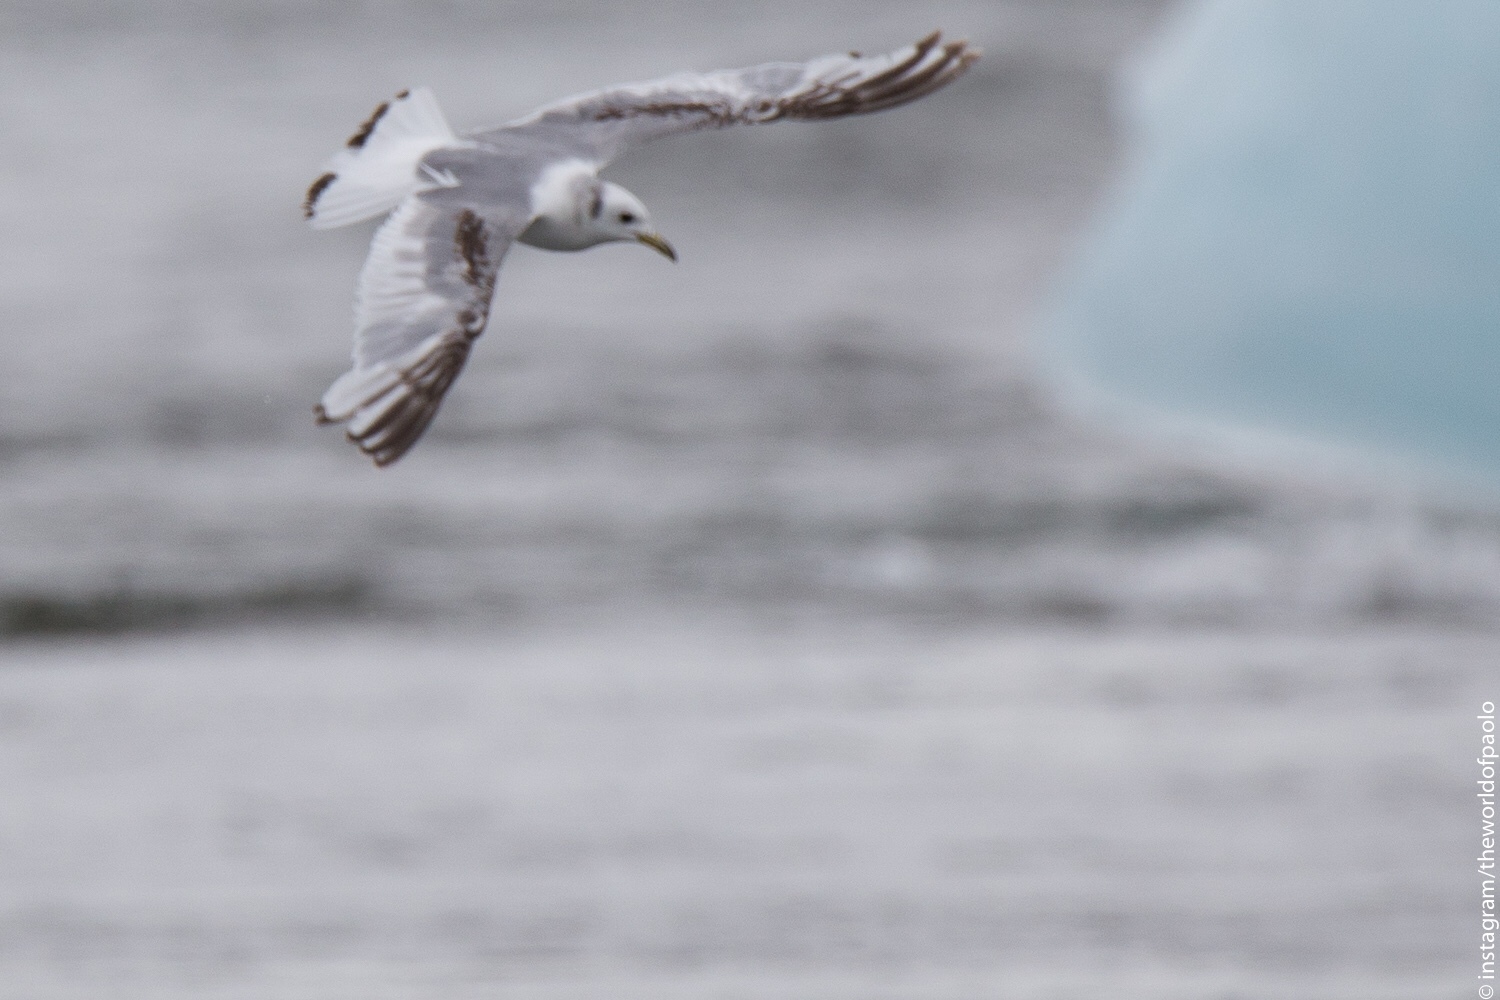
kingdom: Animalia
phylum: Chordata
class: Aves
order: Charadriiformes
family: Laridae
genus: Rissa
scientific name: Rissa tridactyla
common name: Black-legged kittiwake
